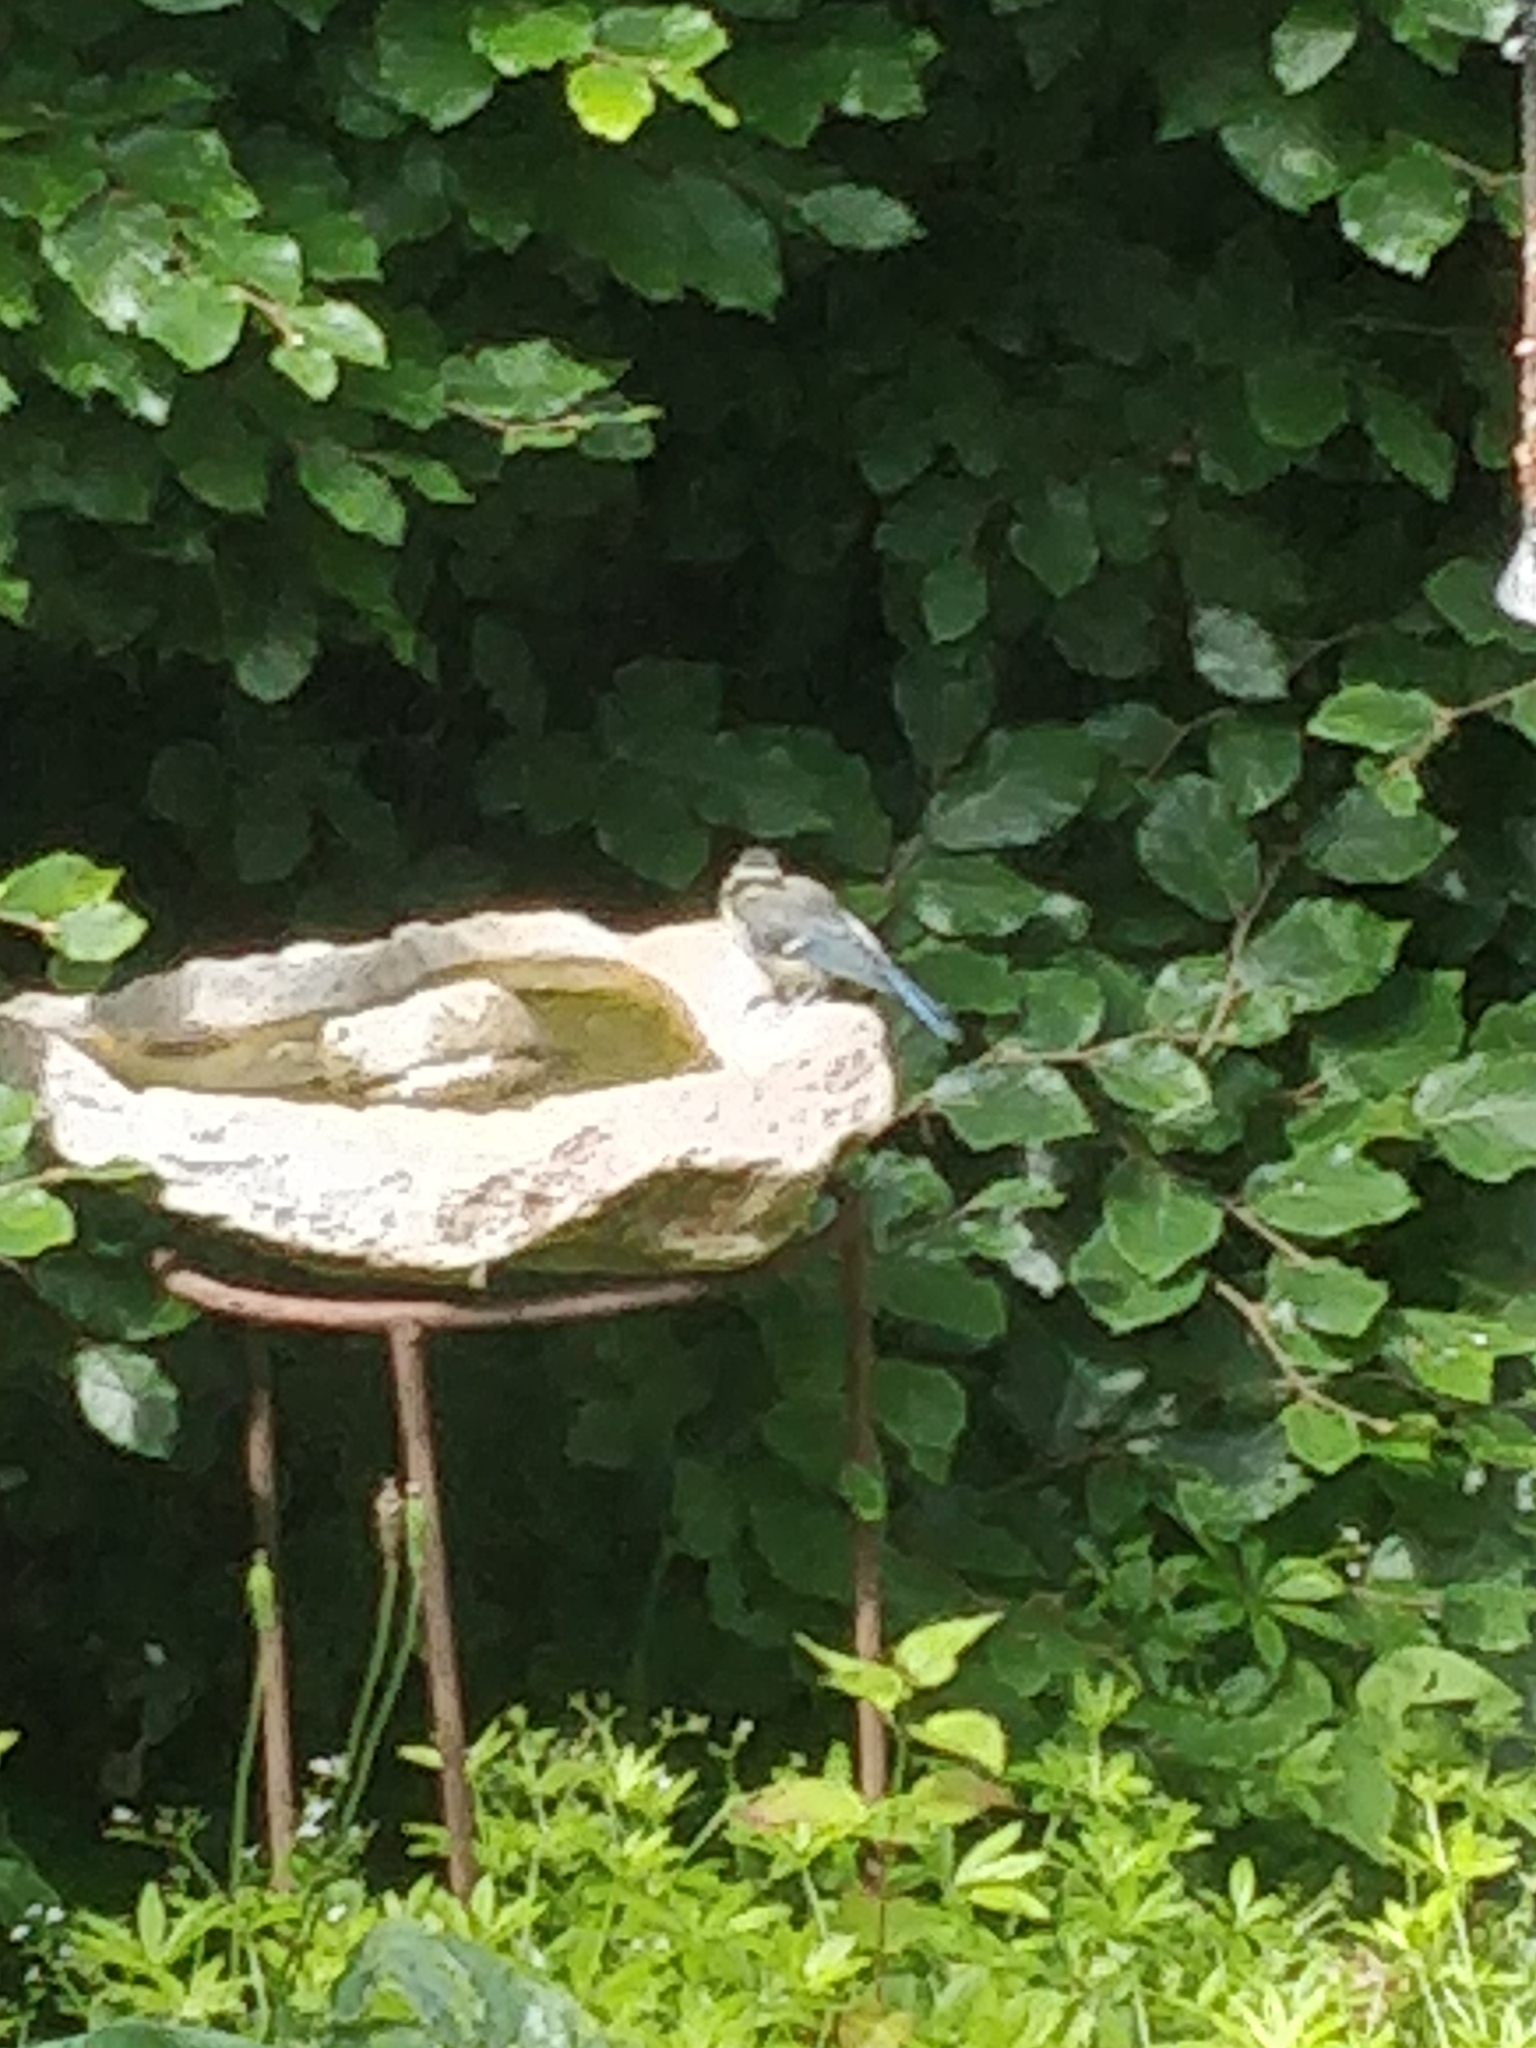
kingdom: Animalia
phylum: Chordata
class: Aves
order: Passeriformes
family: Paridae
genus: Cyanistes
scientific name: Cyanistes caeruleus
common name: Eurasian blue tit
